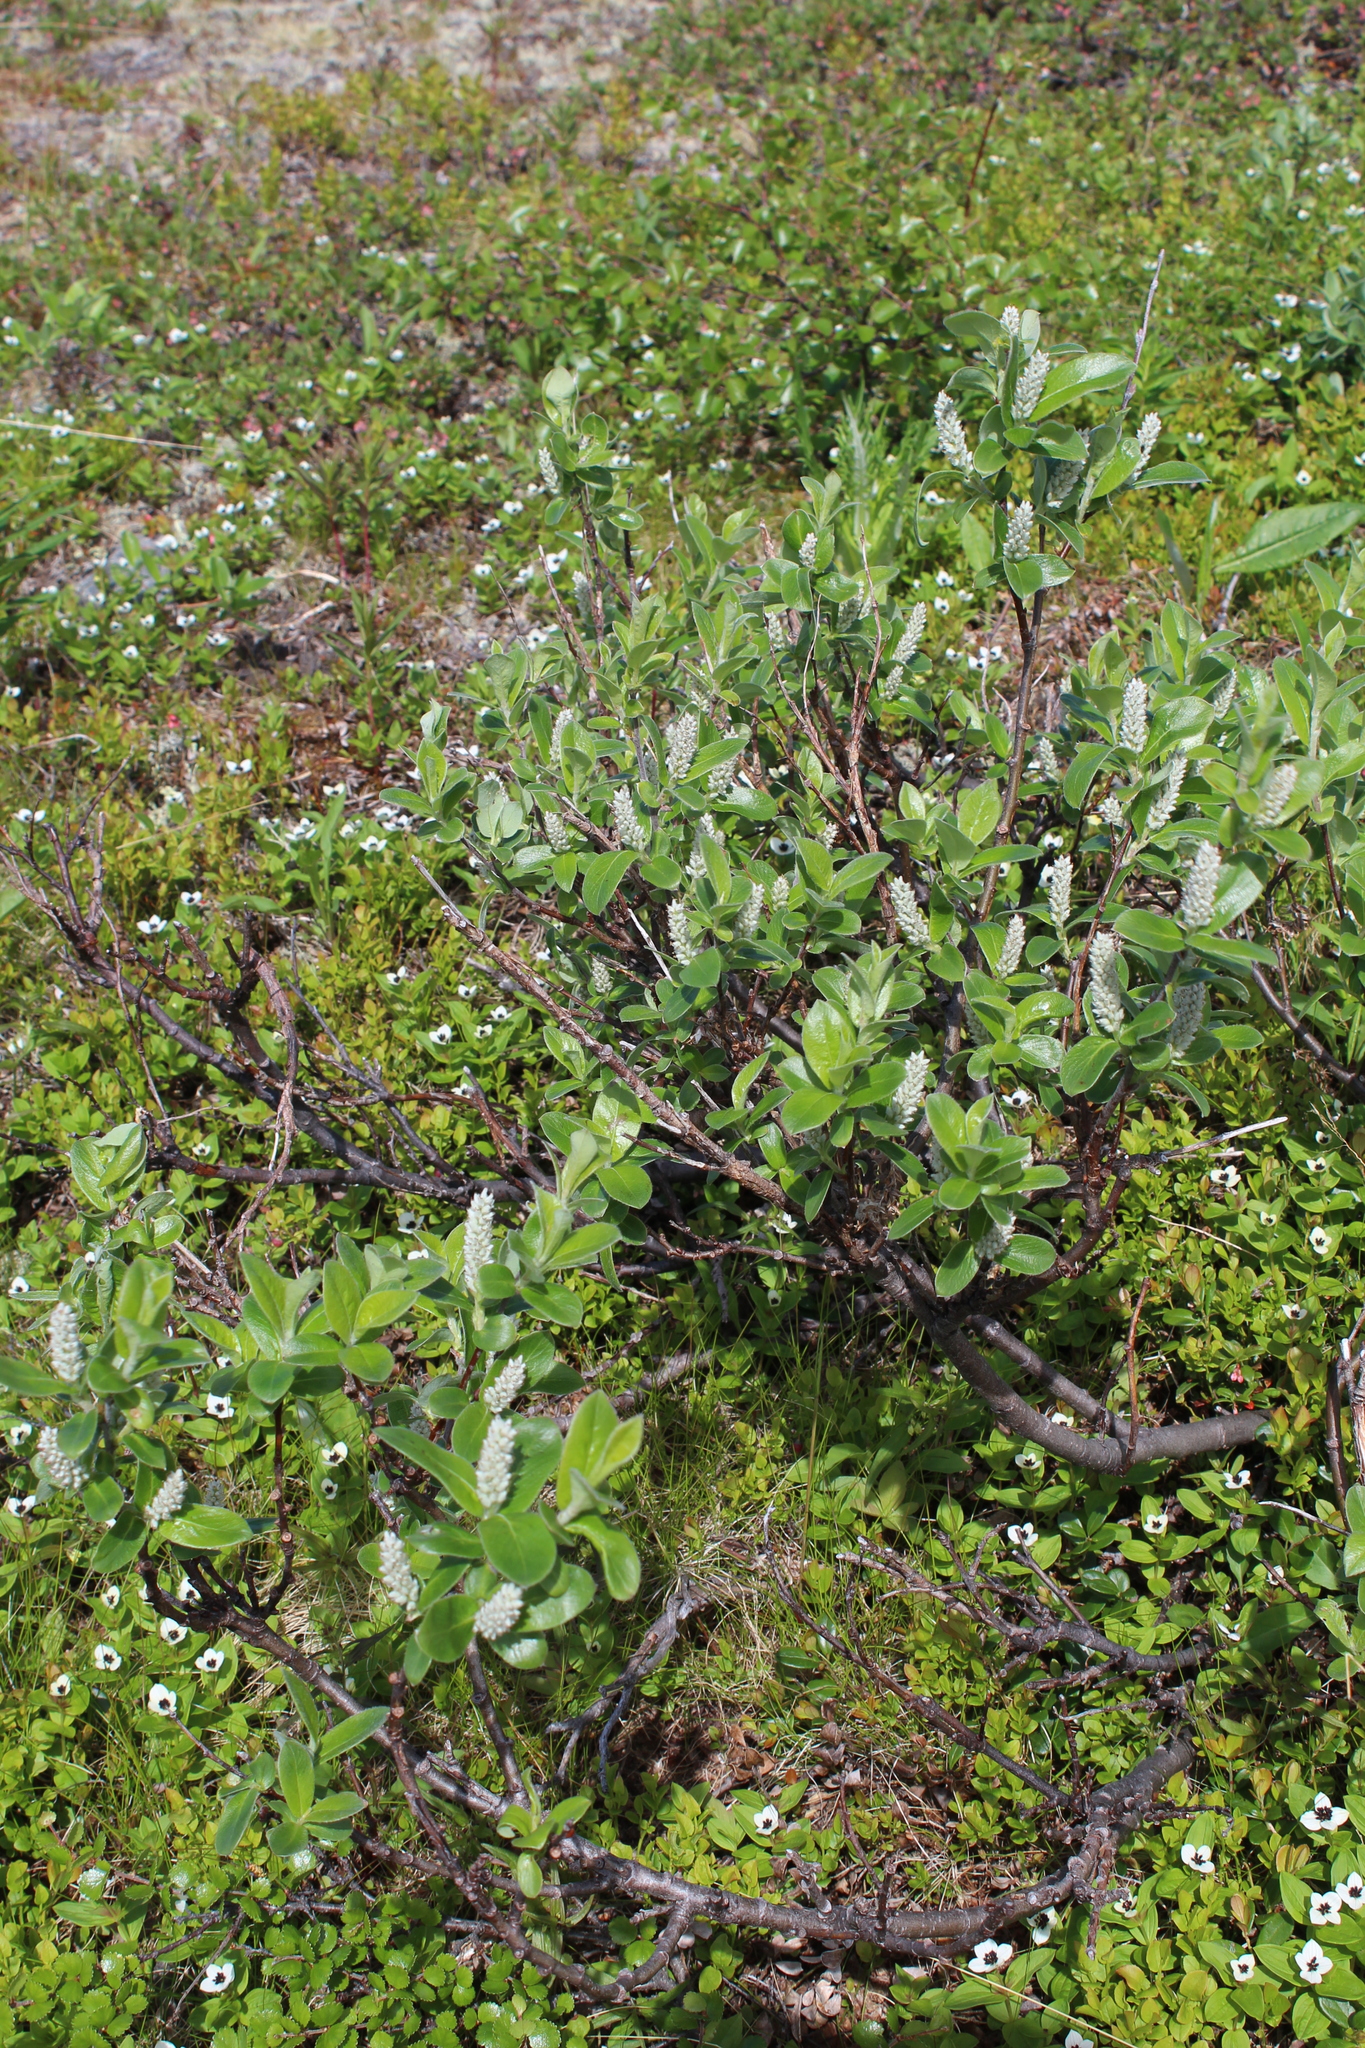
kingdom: Plantae
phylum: Tracheophyta
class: Magnoliopsida
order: Malpighiales
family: Salicaceae
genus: Salix
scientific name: Salix glauca
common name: Glaucous willow
